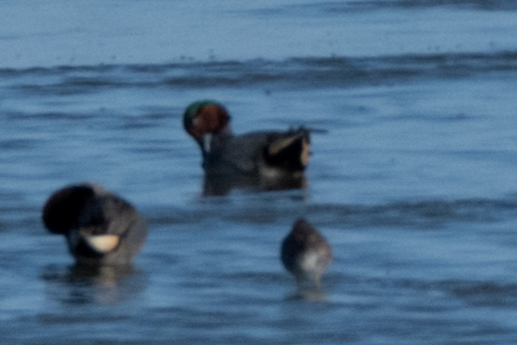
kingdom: Animalia
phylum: Chordata
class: Aves
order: Anseriformes
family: Anatidae
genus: Anas
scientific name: Anas crecca
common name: Eurasian teal
